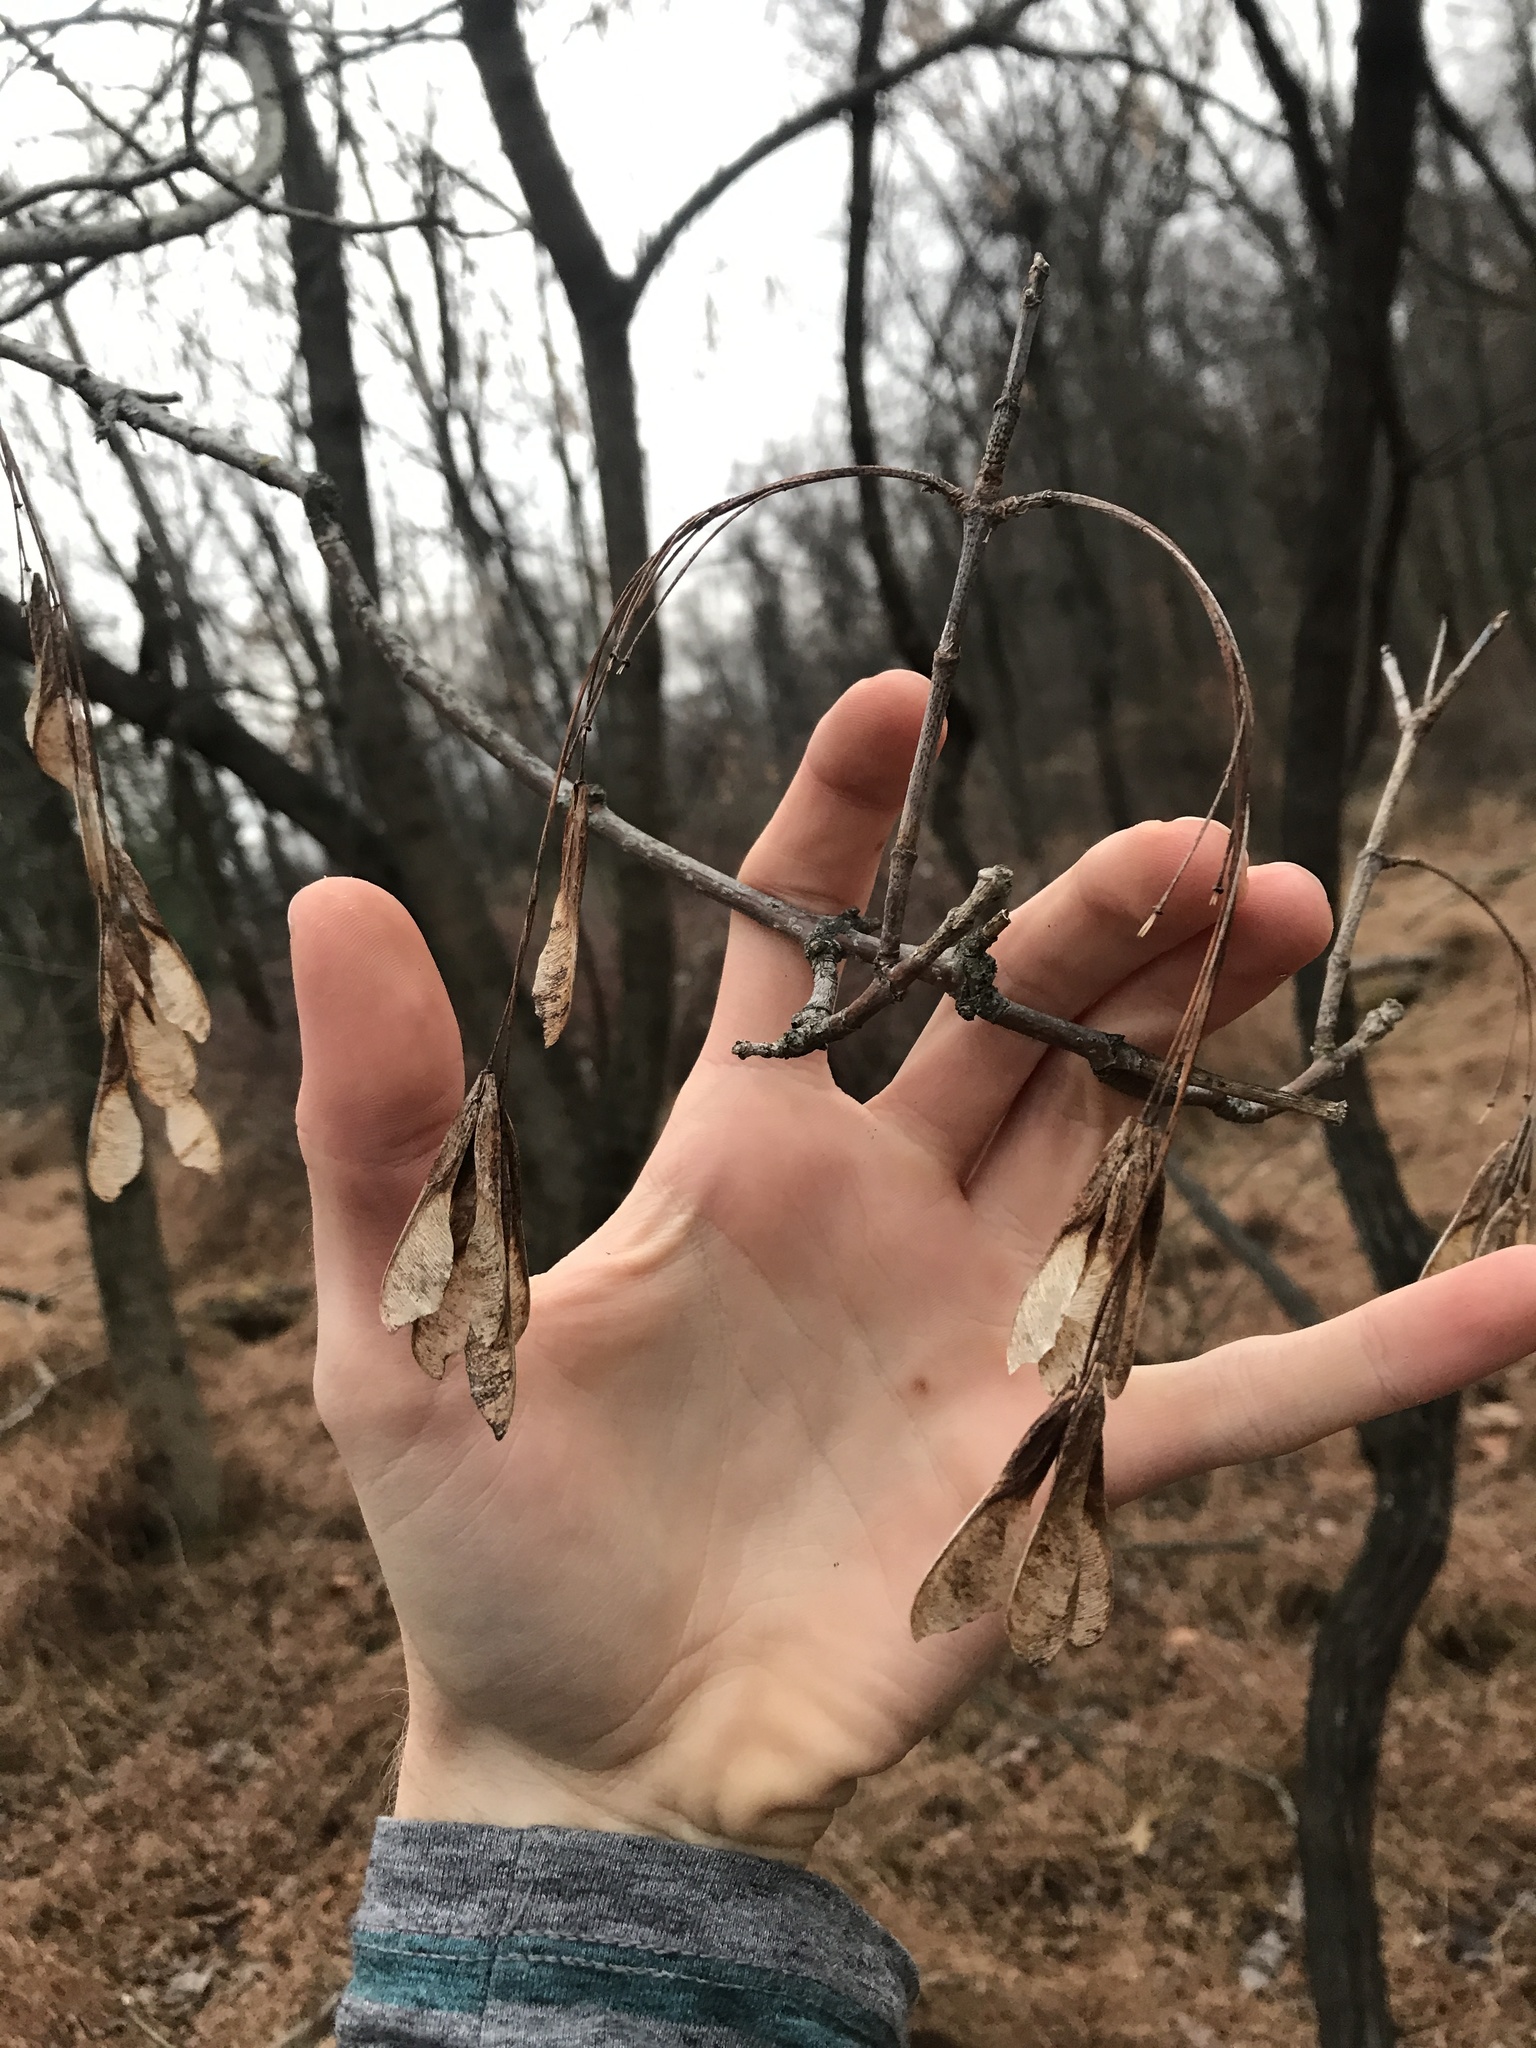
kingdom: Plantae
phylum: Tracheophyta
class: Magnoliopsida
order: Sapindales
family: Sapindaceae
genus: Acer
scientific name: Acer negundo
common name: Ashleaf maple
